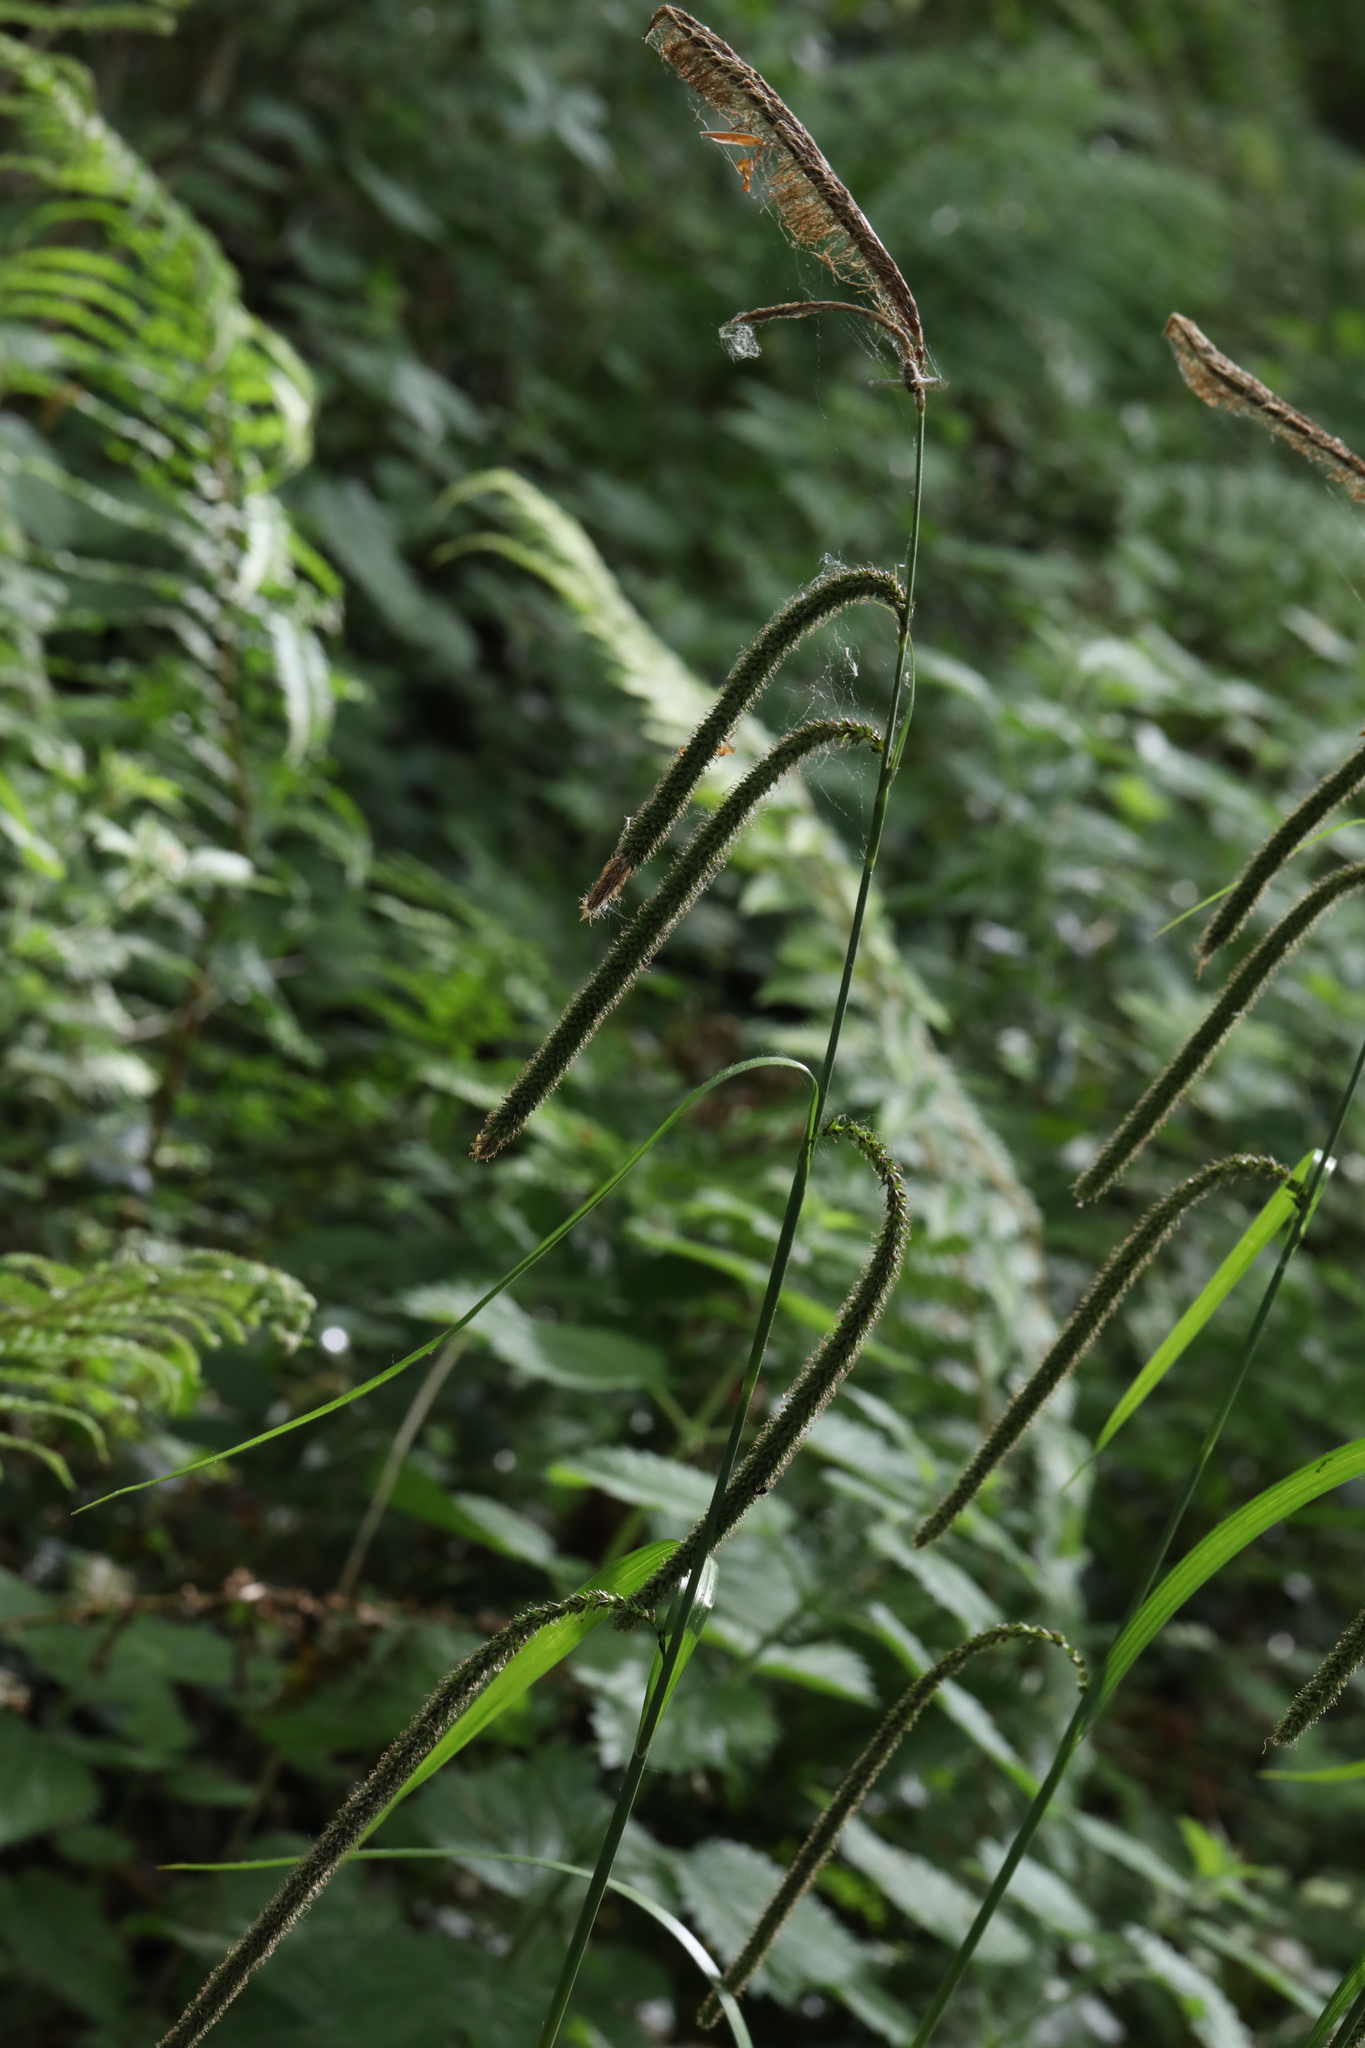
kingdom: Plantae
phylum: Tracheophyta
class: Liliopsida
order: Poales
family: Cyperaceae
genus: Carex
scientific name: Carex pendula
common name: Pendulous sedge
